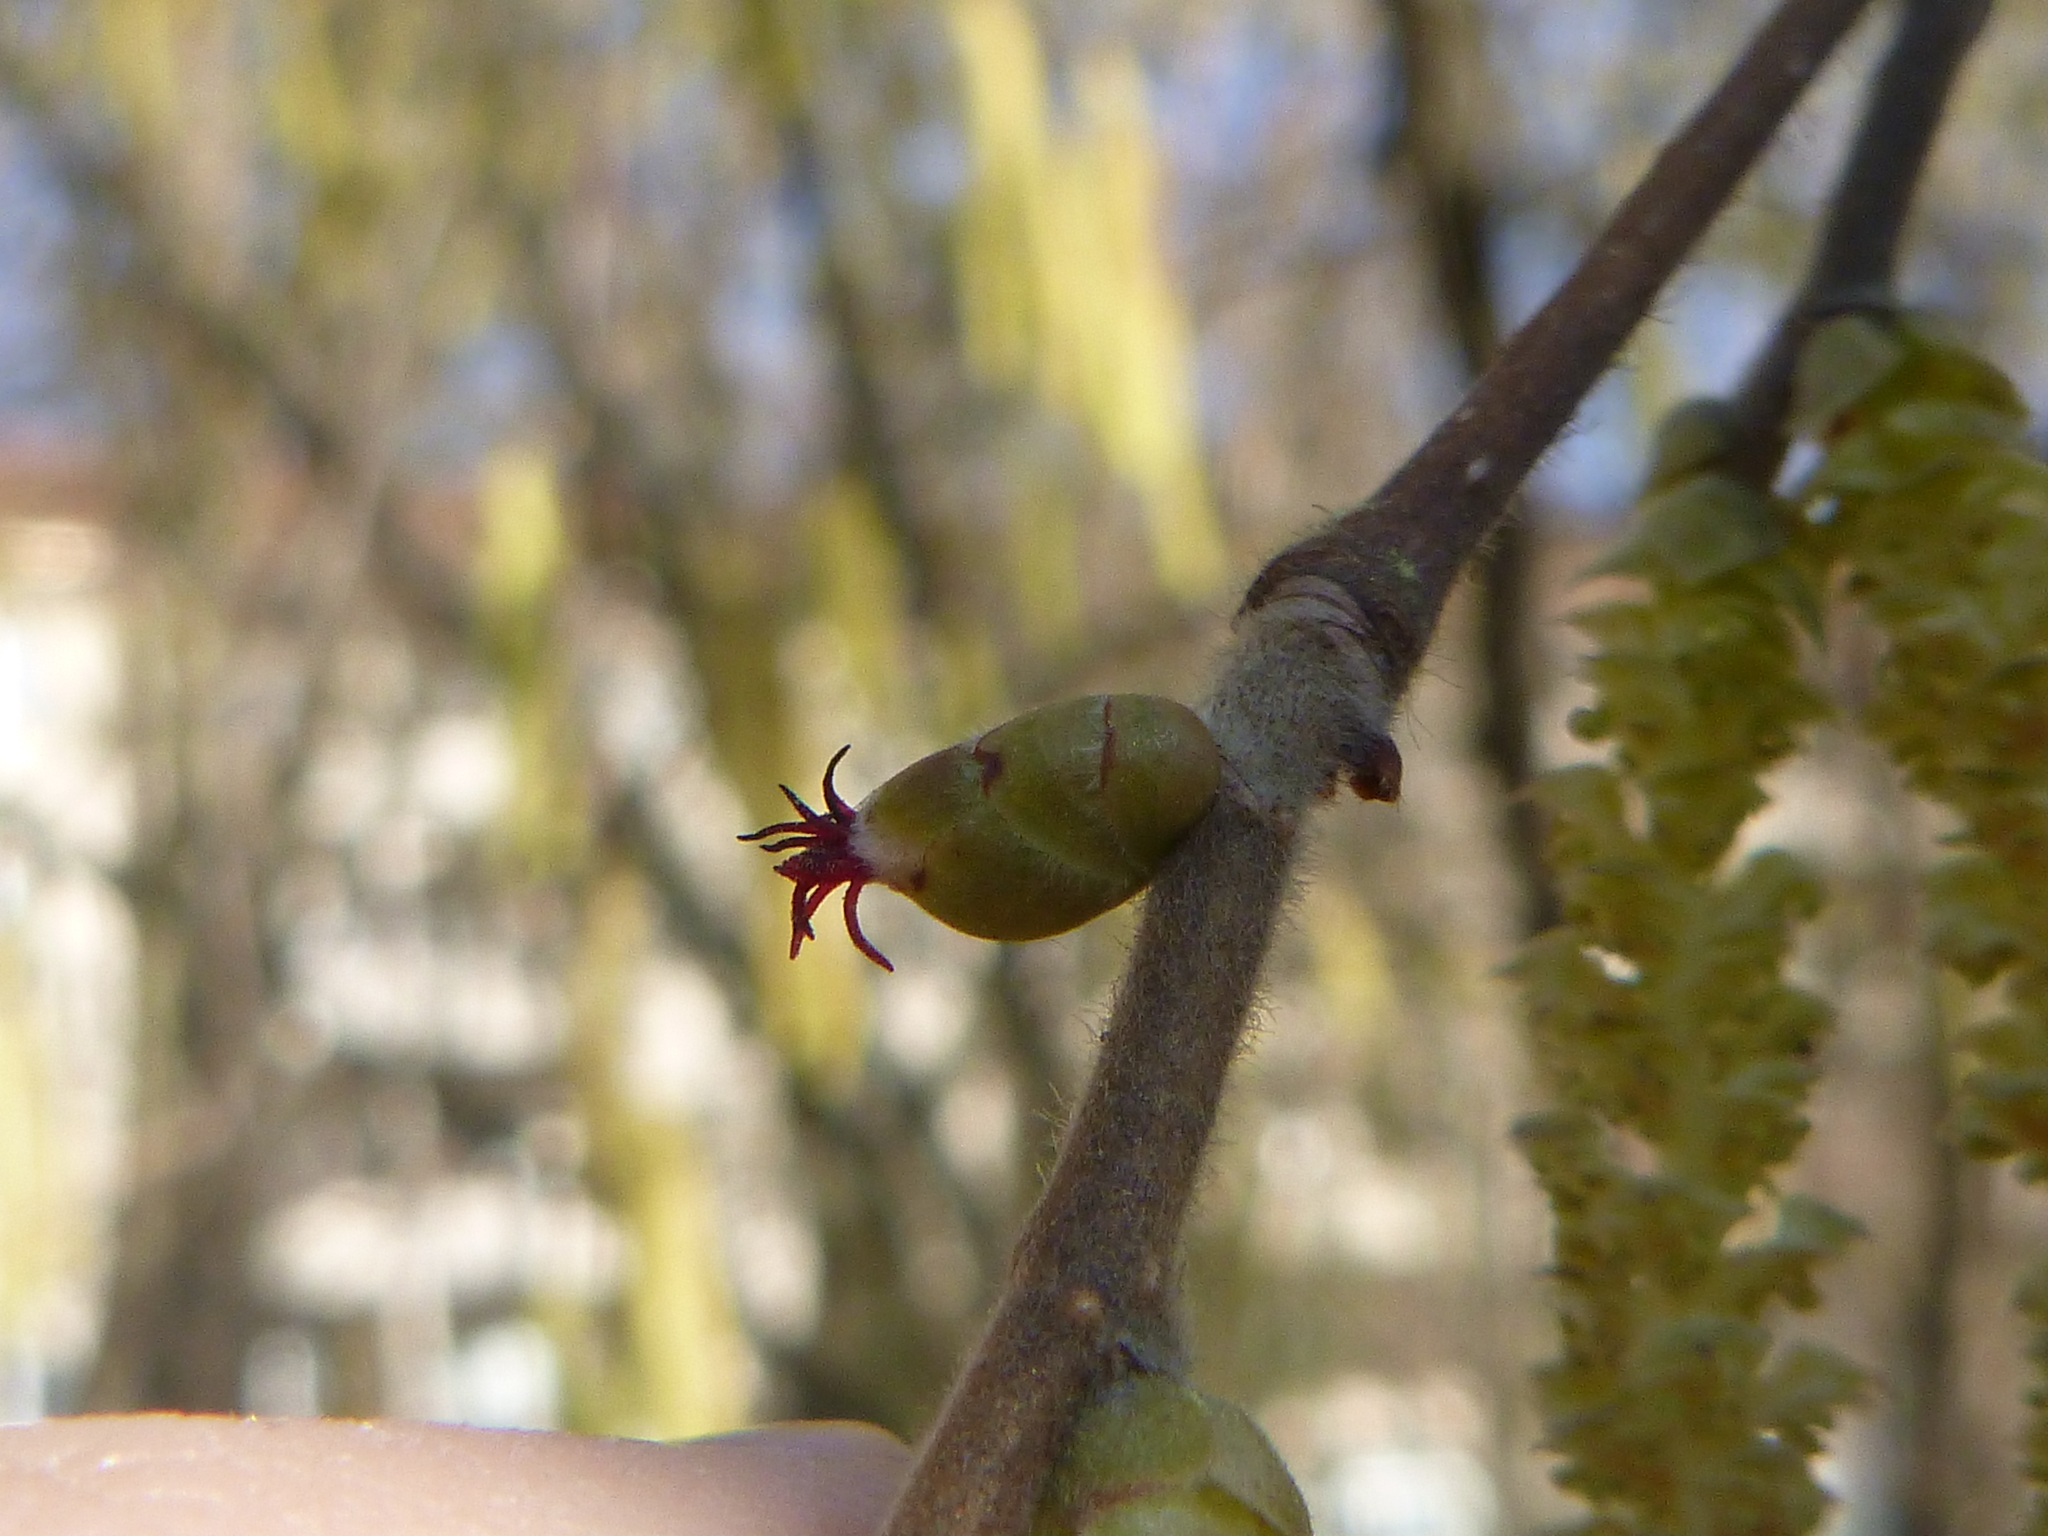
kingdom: Plantae
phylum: Tracheophyta
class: Magnoliopsida
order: Fagales
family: Betulaceae
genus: Corylus
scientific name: Corylus avellana
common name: European hazel
